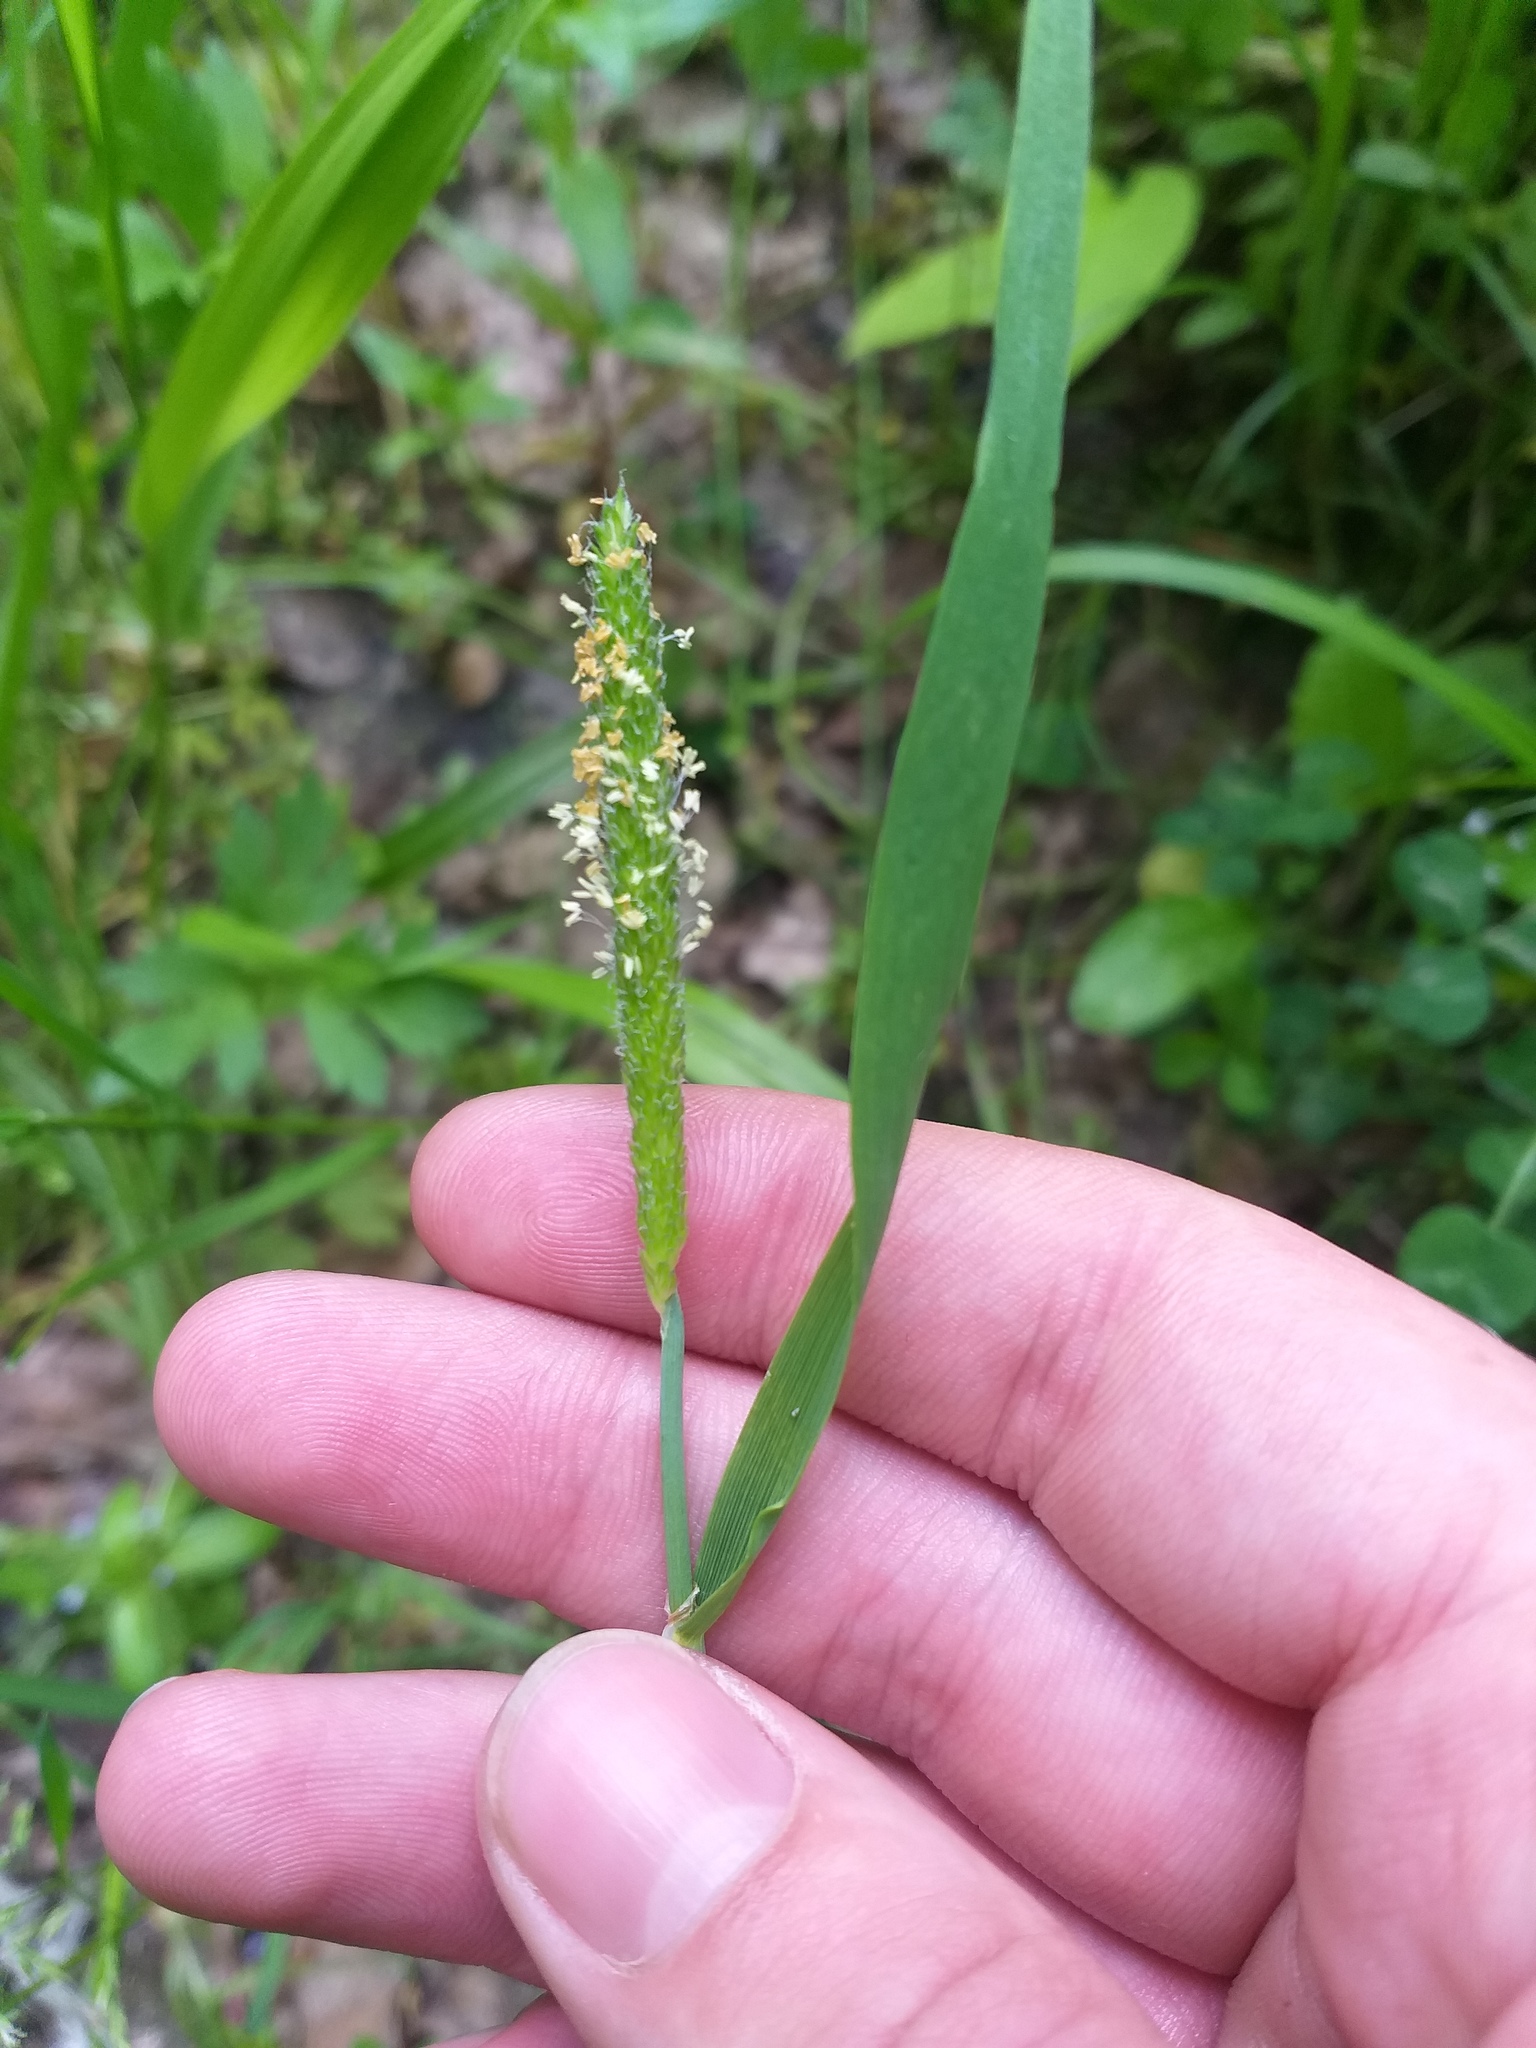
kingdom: Plantae
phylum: Tracheophyta
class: Liliopsida
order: Poales
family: Poaceae
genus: Alopecurus
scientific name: Alopecurus aequalis
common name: Orange foxtail
